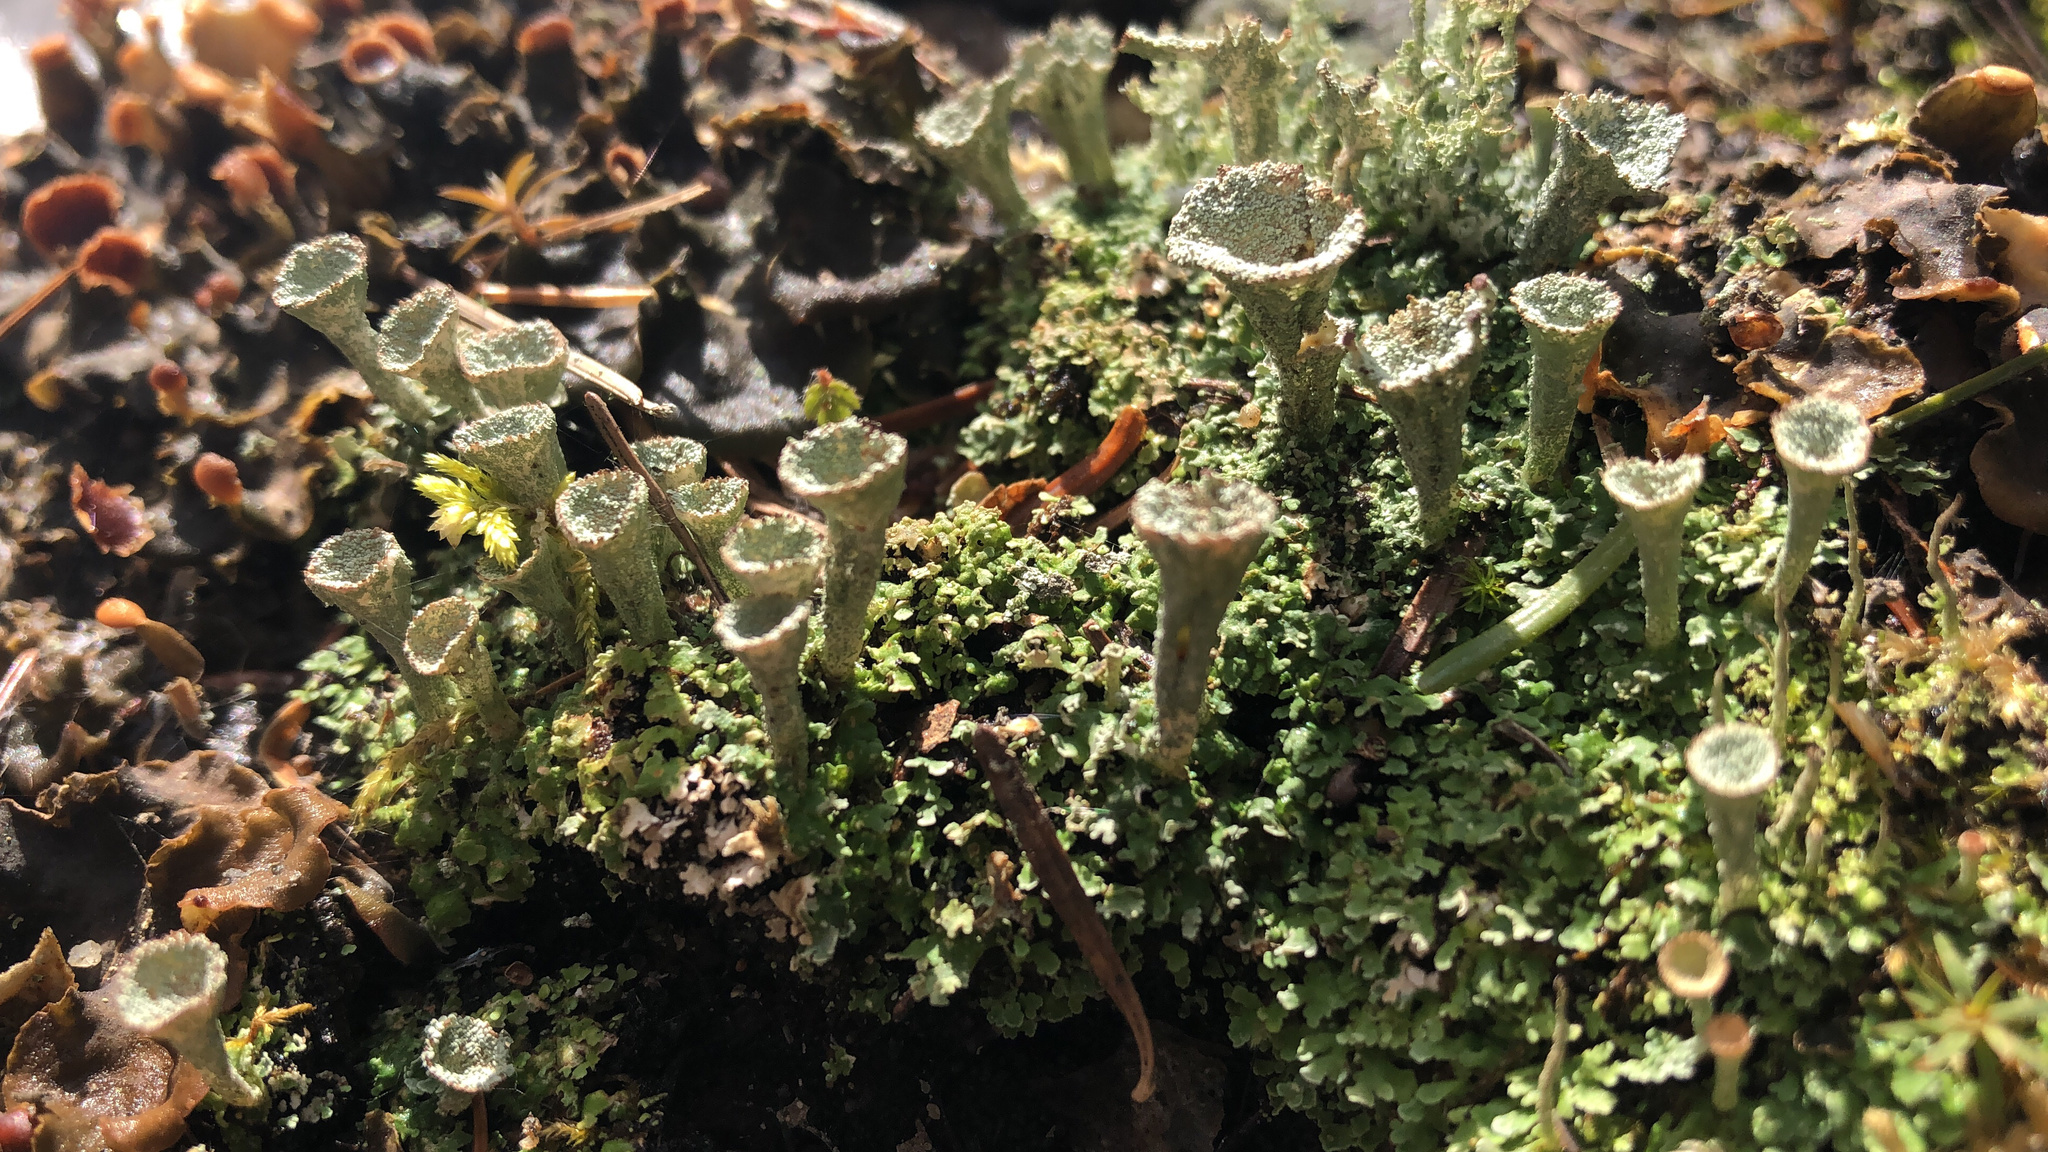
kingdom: Fungi
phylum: Ascomycota
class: Lecanoromycetes
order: Lecanorales
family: Cladoniaceae
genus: Cladonia
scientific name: Cladonia pyxidata
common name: Pebbled pixie cup
